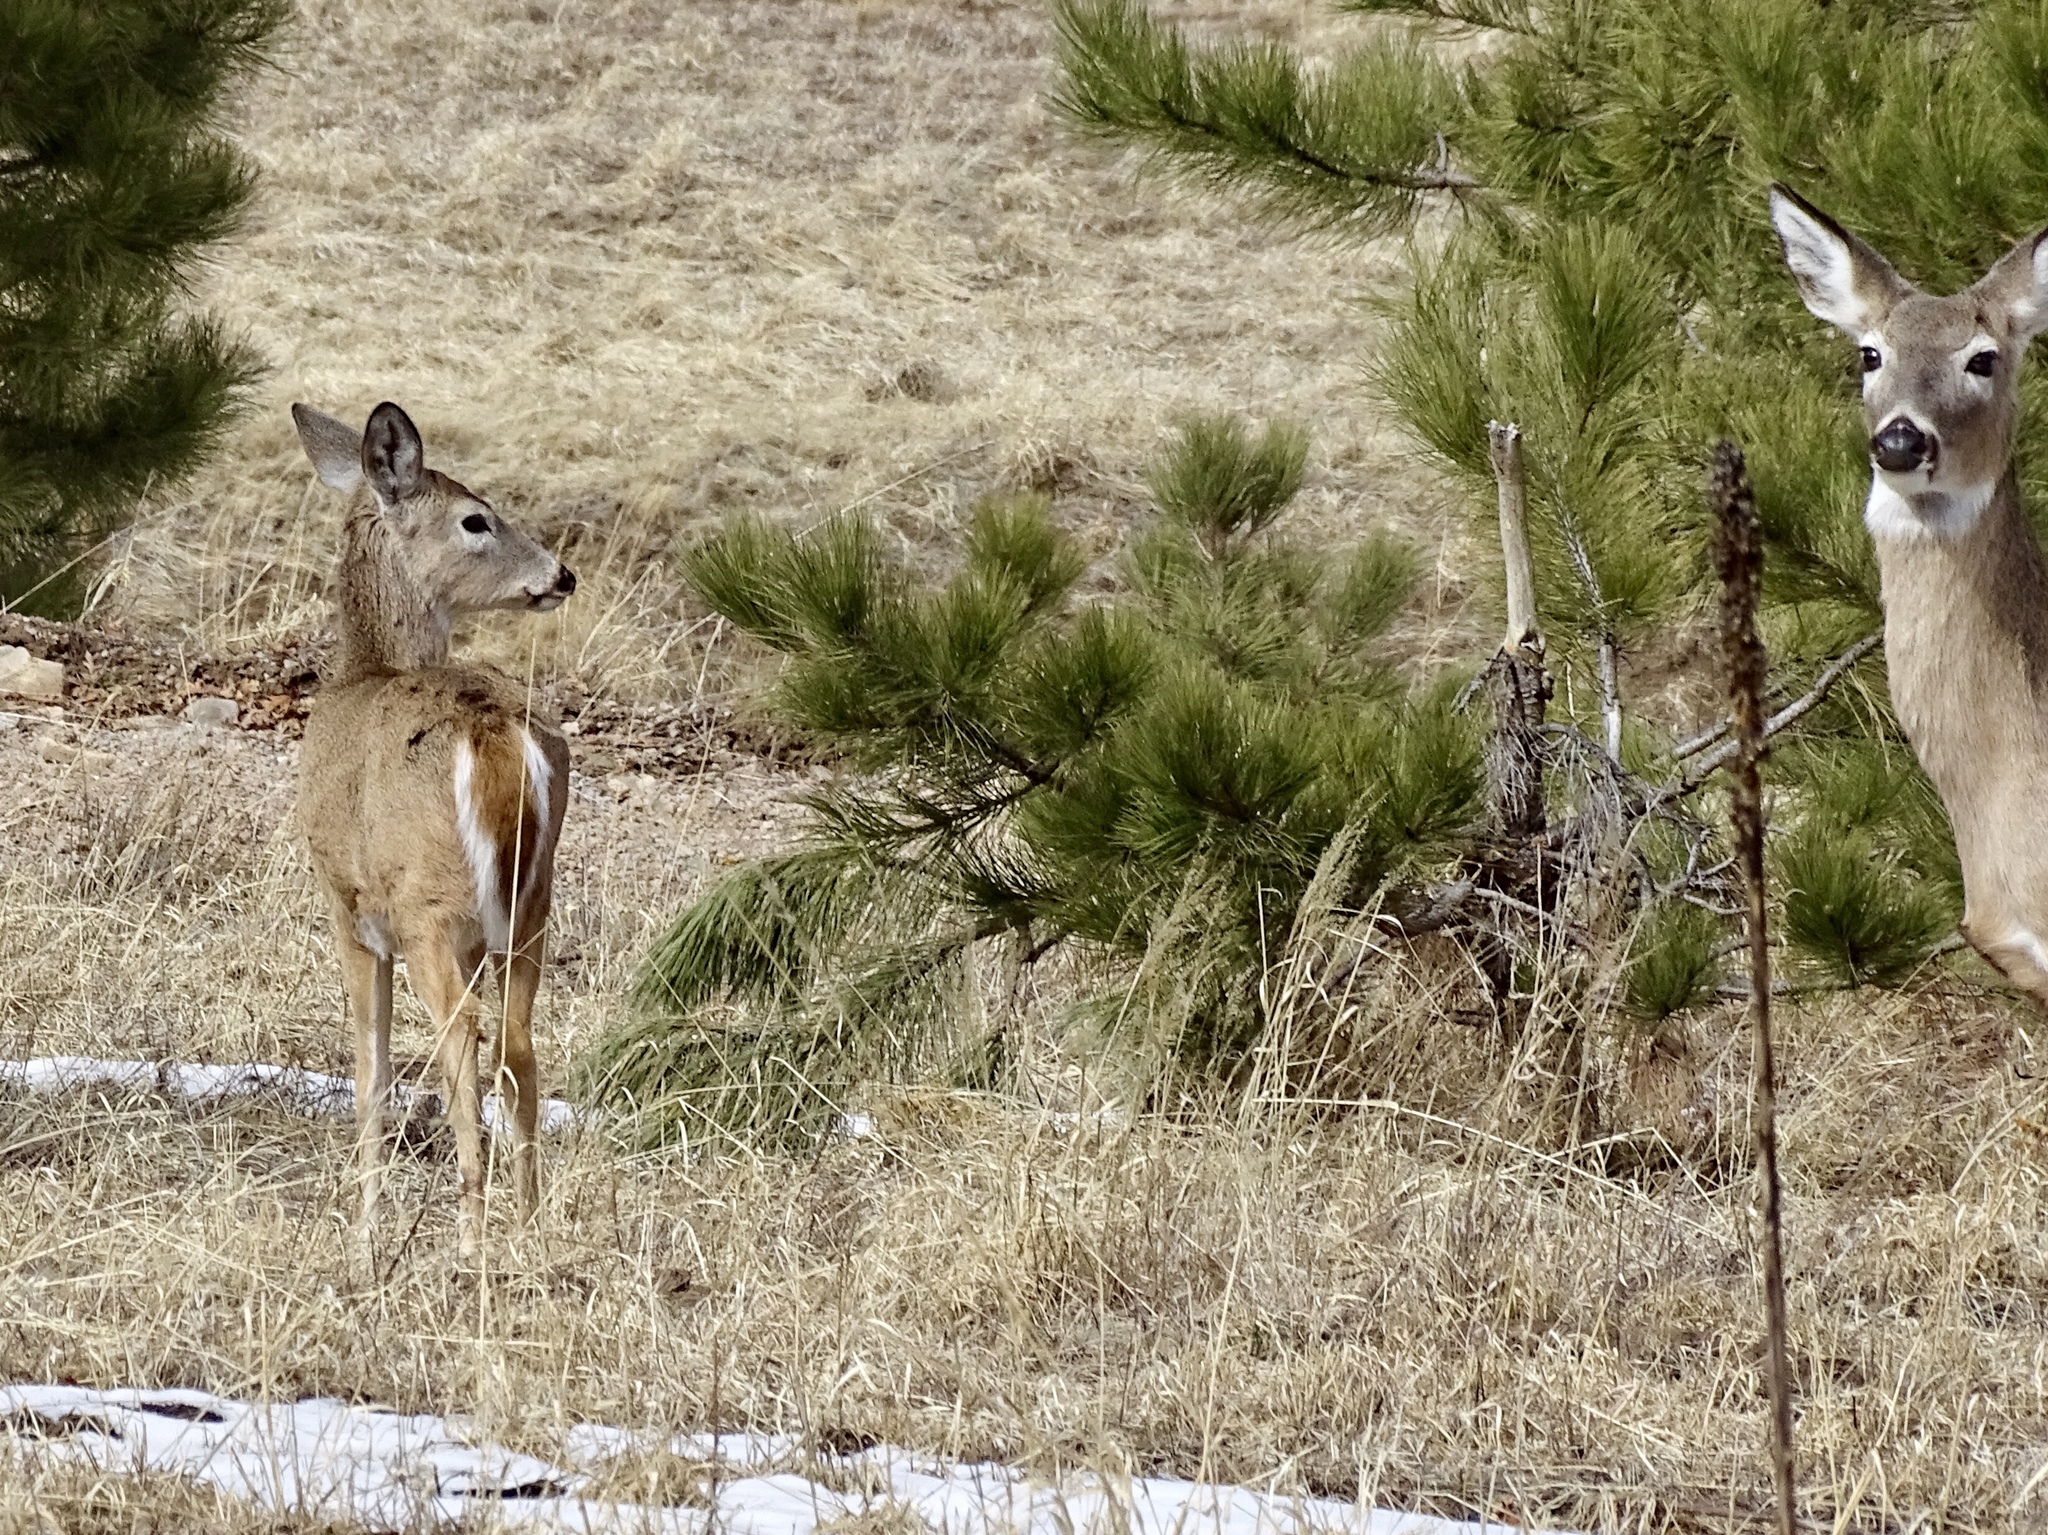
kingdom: Animalia
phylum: Chordata
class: Mammalia
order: Artiodactyla
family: Cervidae
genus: Odocoileus
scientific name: Odocoileus virginianus
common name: White-tailed deer
